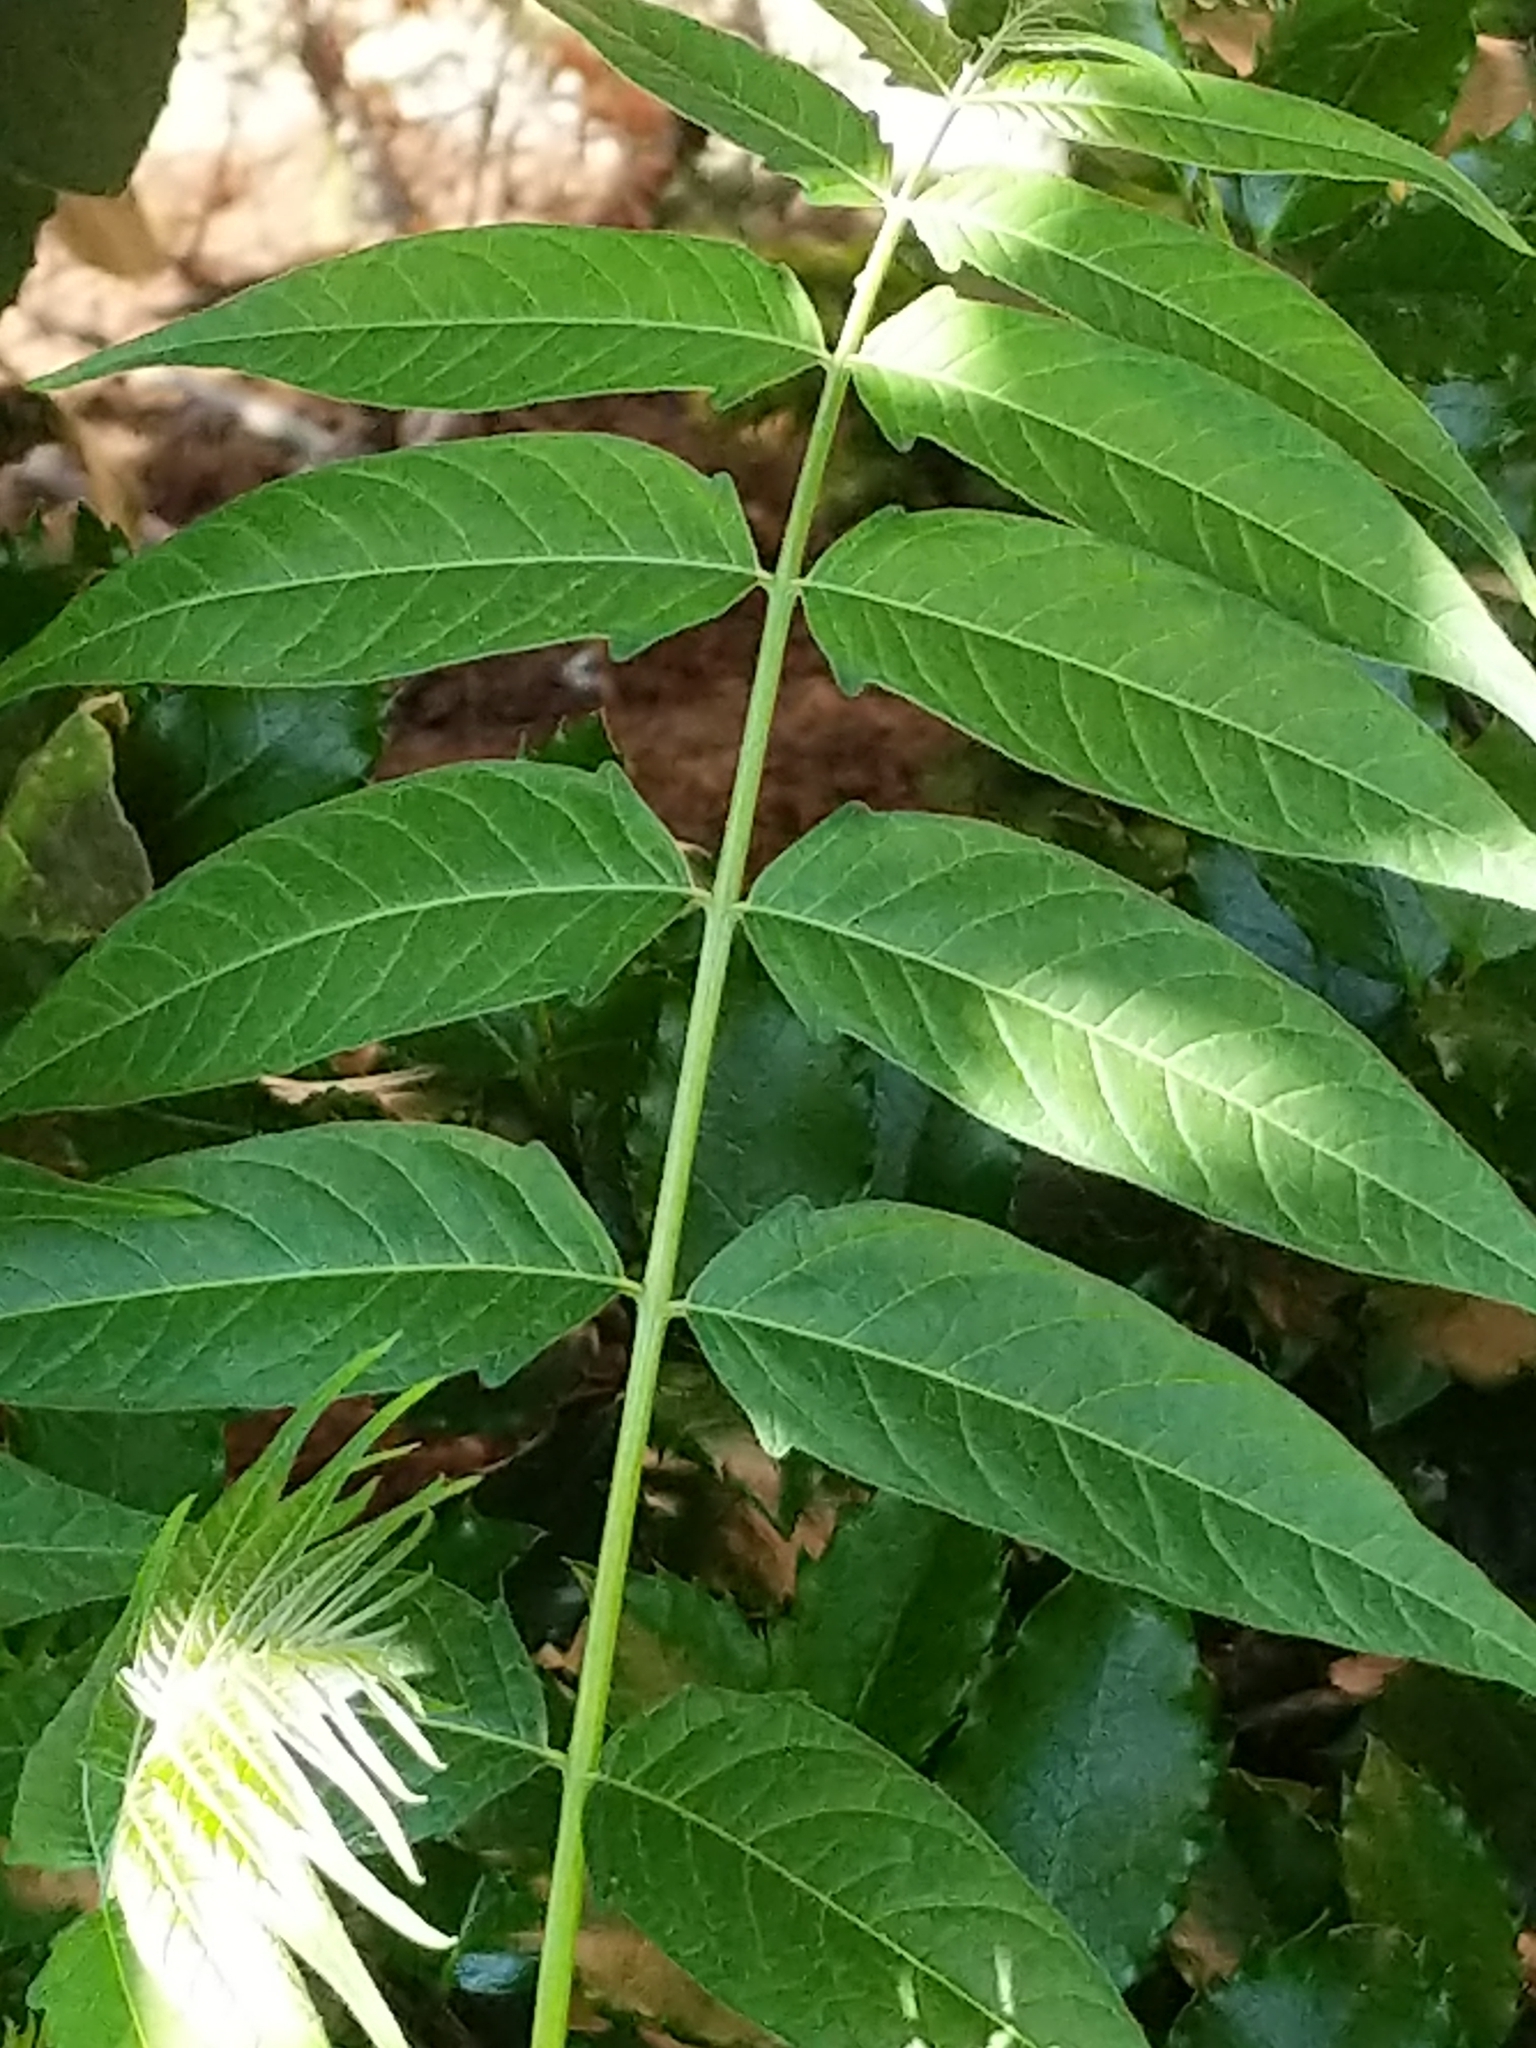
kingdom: Plantae
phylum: Tracheophyta
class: Magnoliopsida
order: Sapindales
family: Simaroubaceae
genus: Ailanthus
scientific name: Ailanthus altissima
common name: Tree-of-heaven
